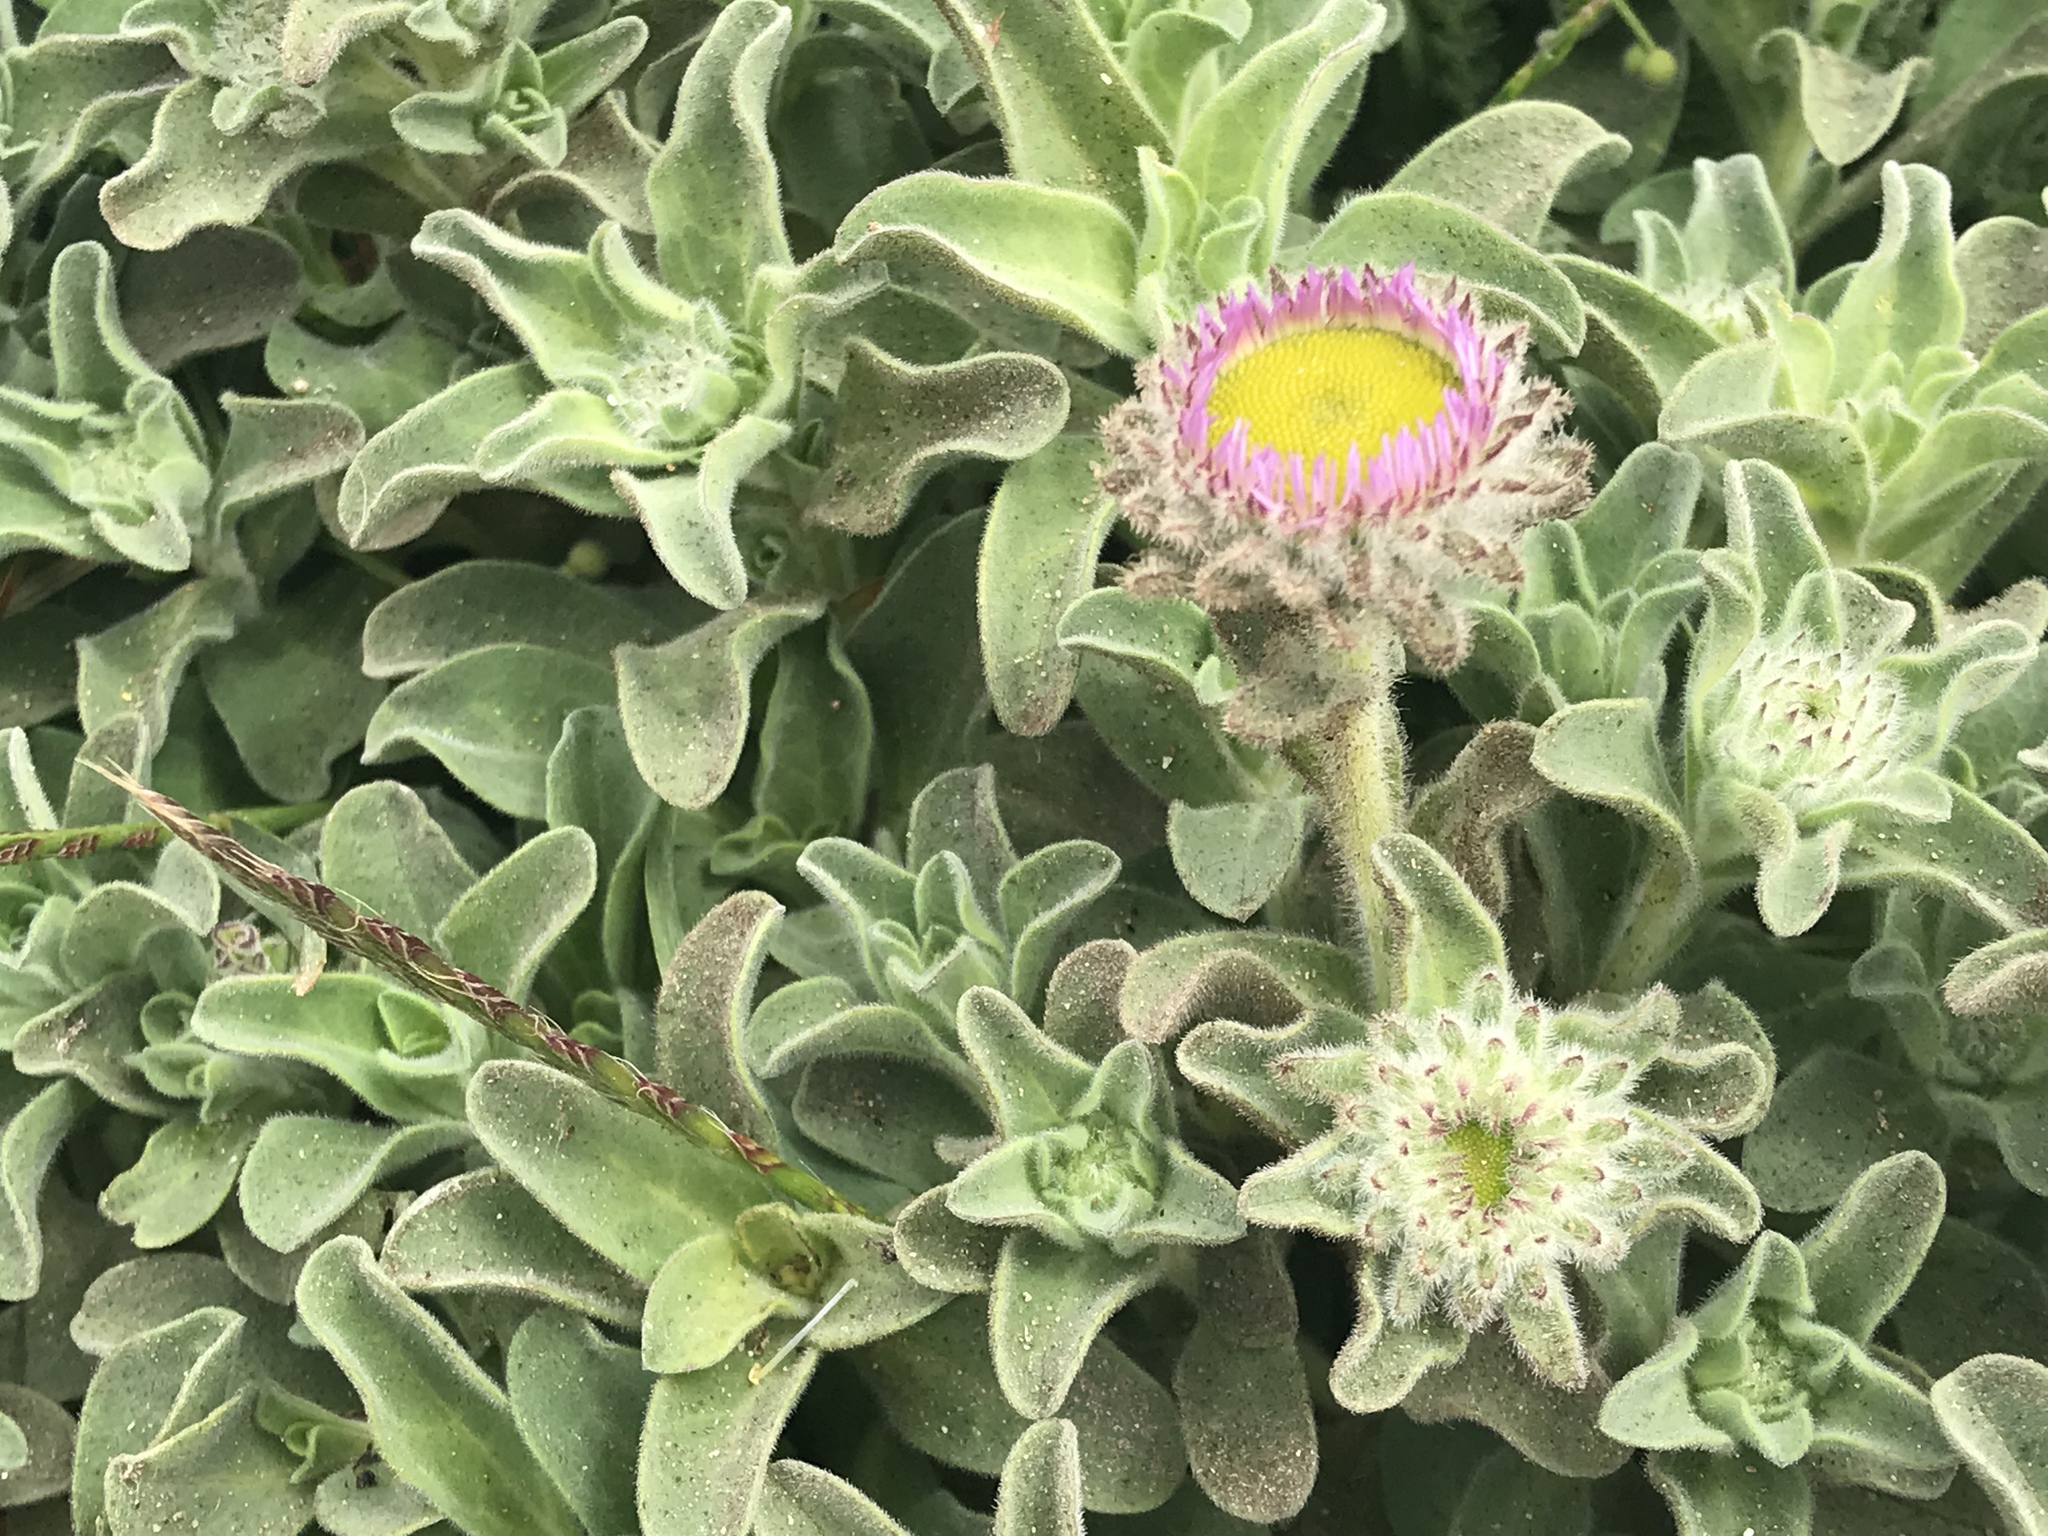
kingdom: Plantae
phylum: Tracheophyta
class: Magnoliopsida
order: Asterales
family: Asteraceae
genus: Erigeron
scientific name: Erigeron glaucus
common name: Seaside daisy
